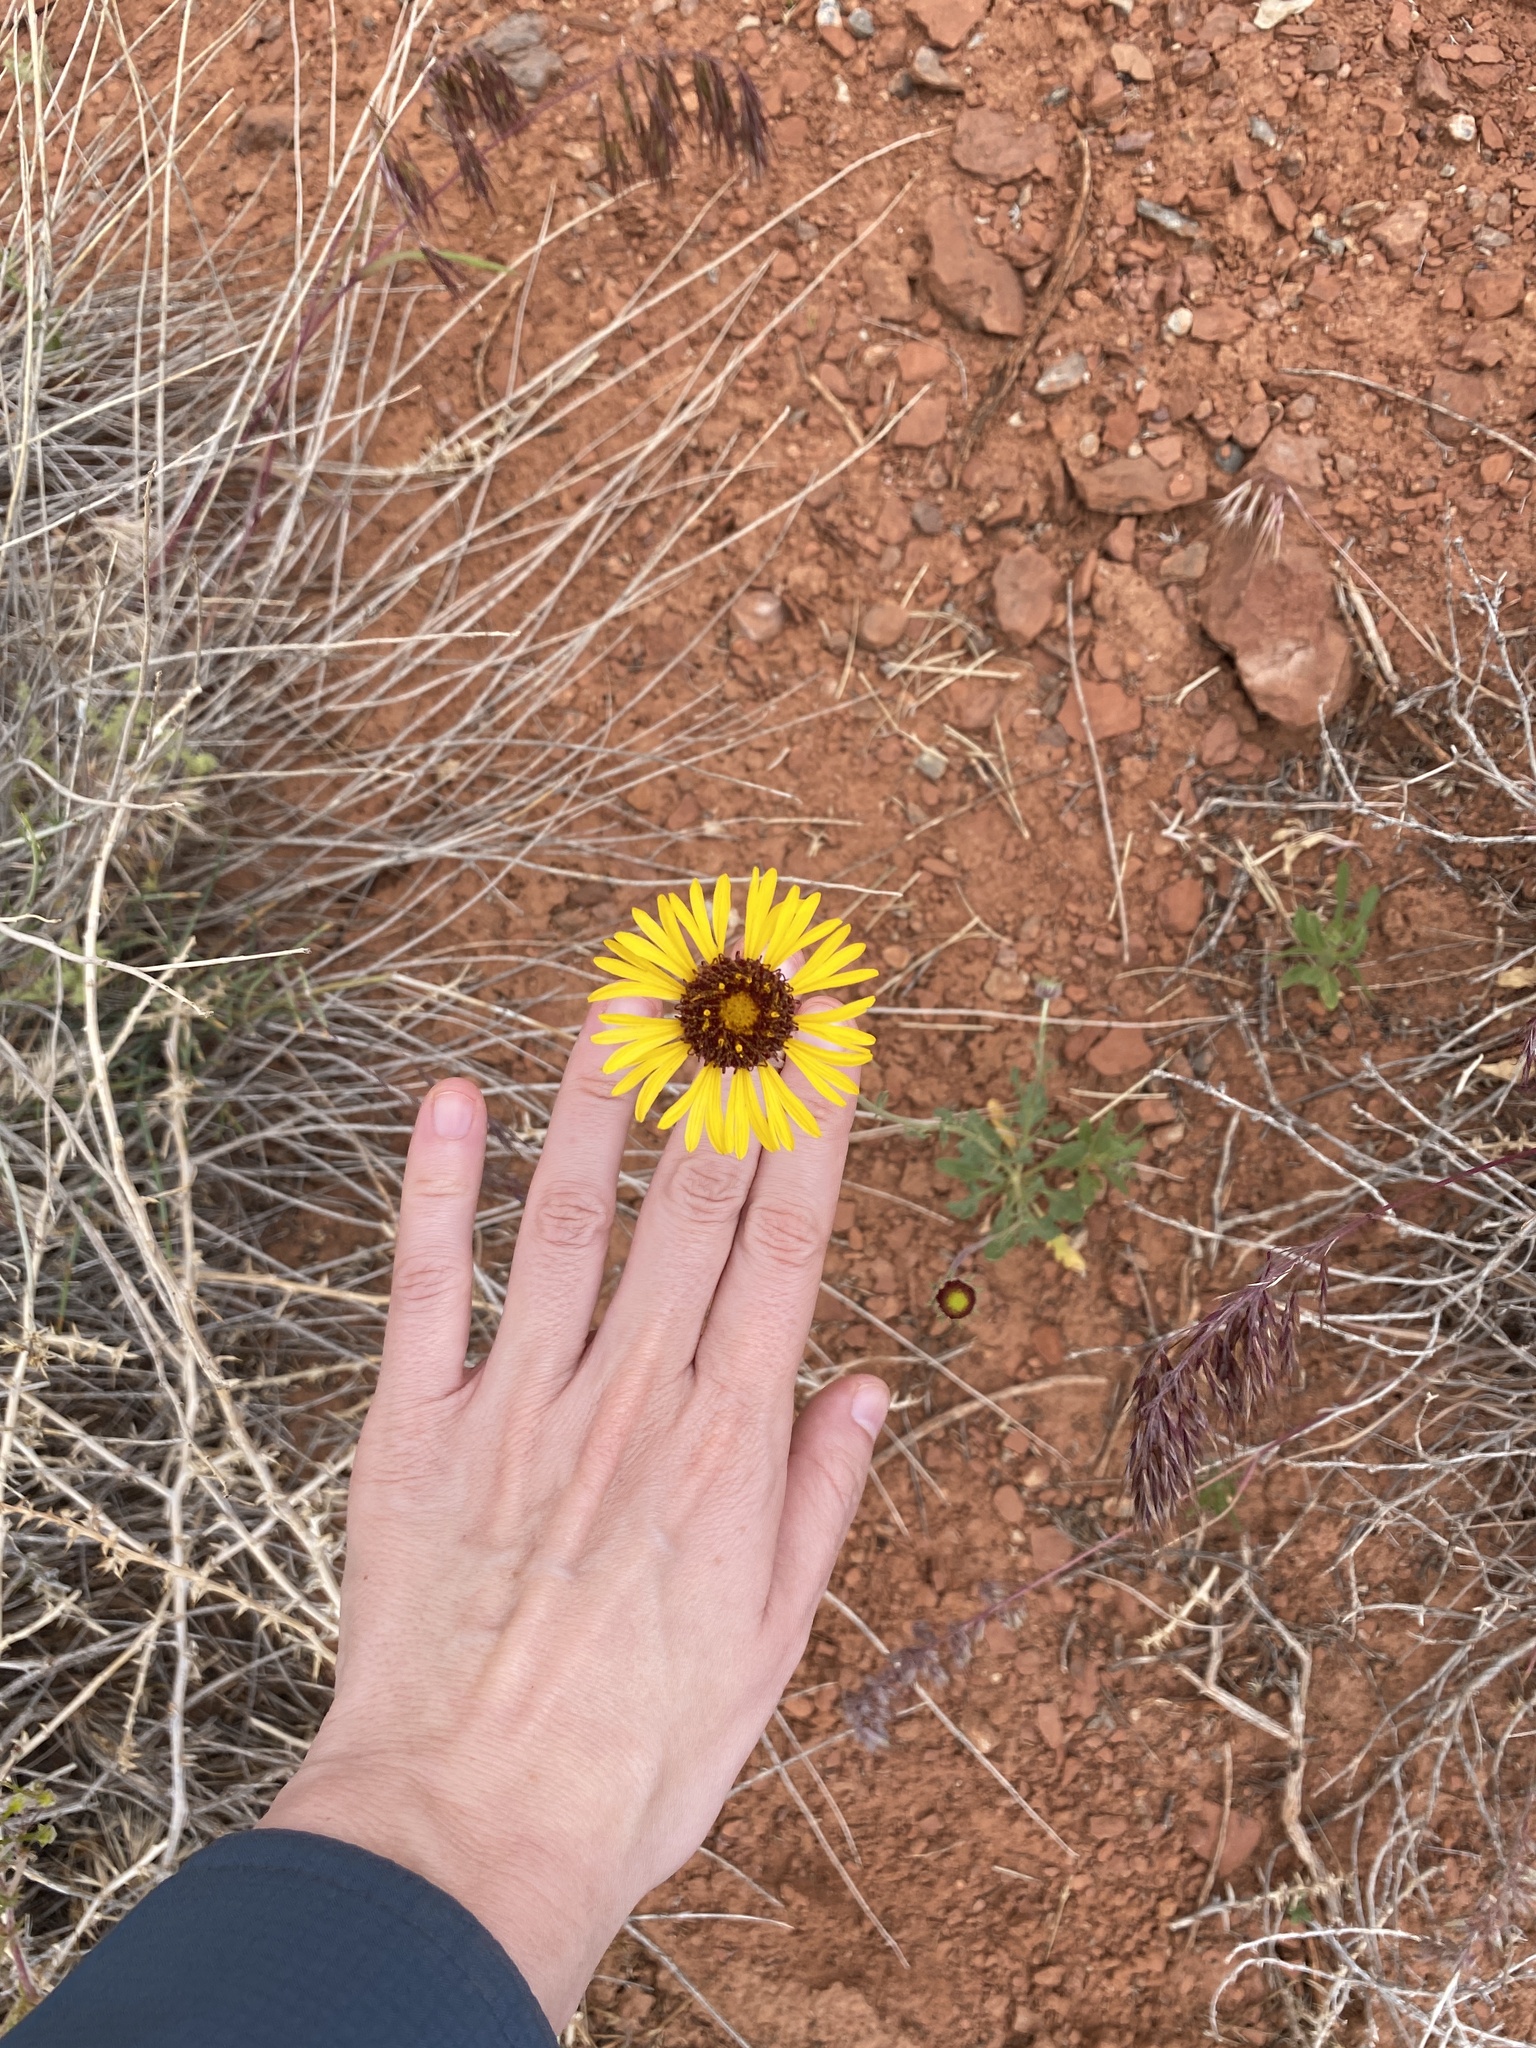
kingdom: Plantae
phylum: Tracheophyta
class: Magnoliopsida
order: Asterales
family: Asteraceae
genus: Gaillardia
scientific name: Gaillardia pinnatifida
